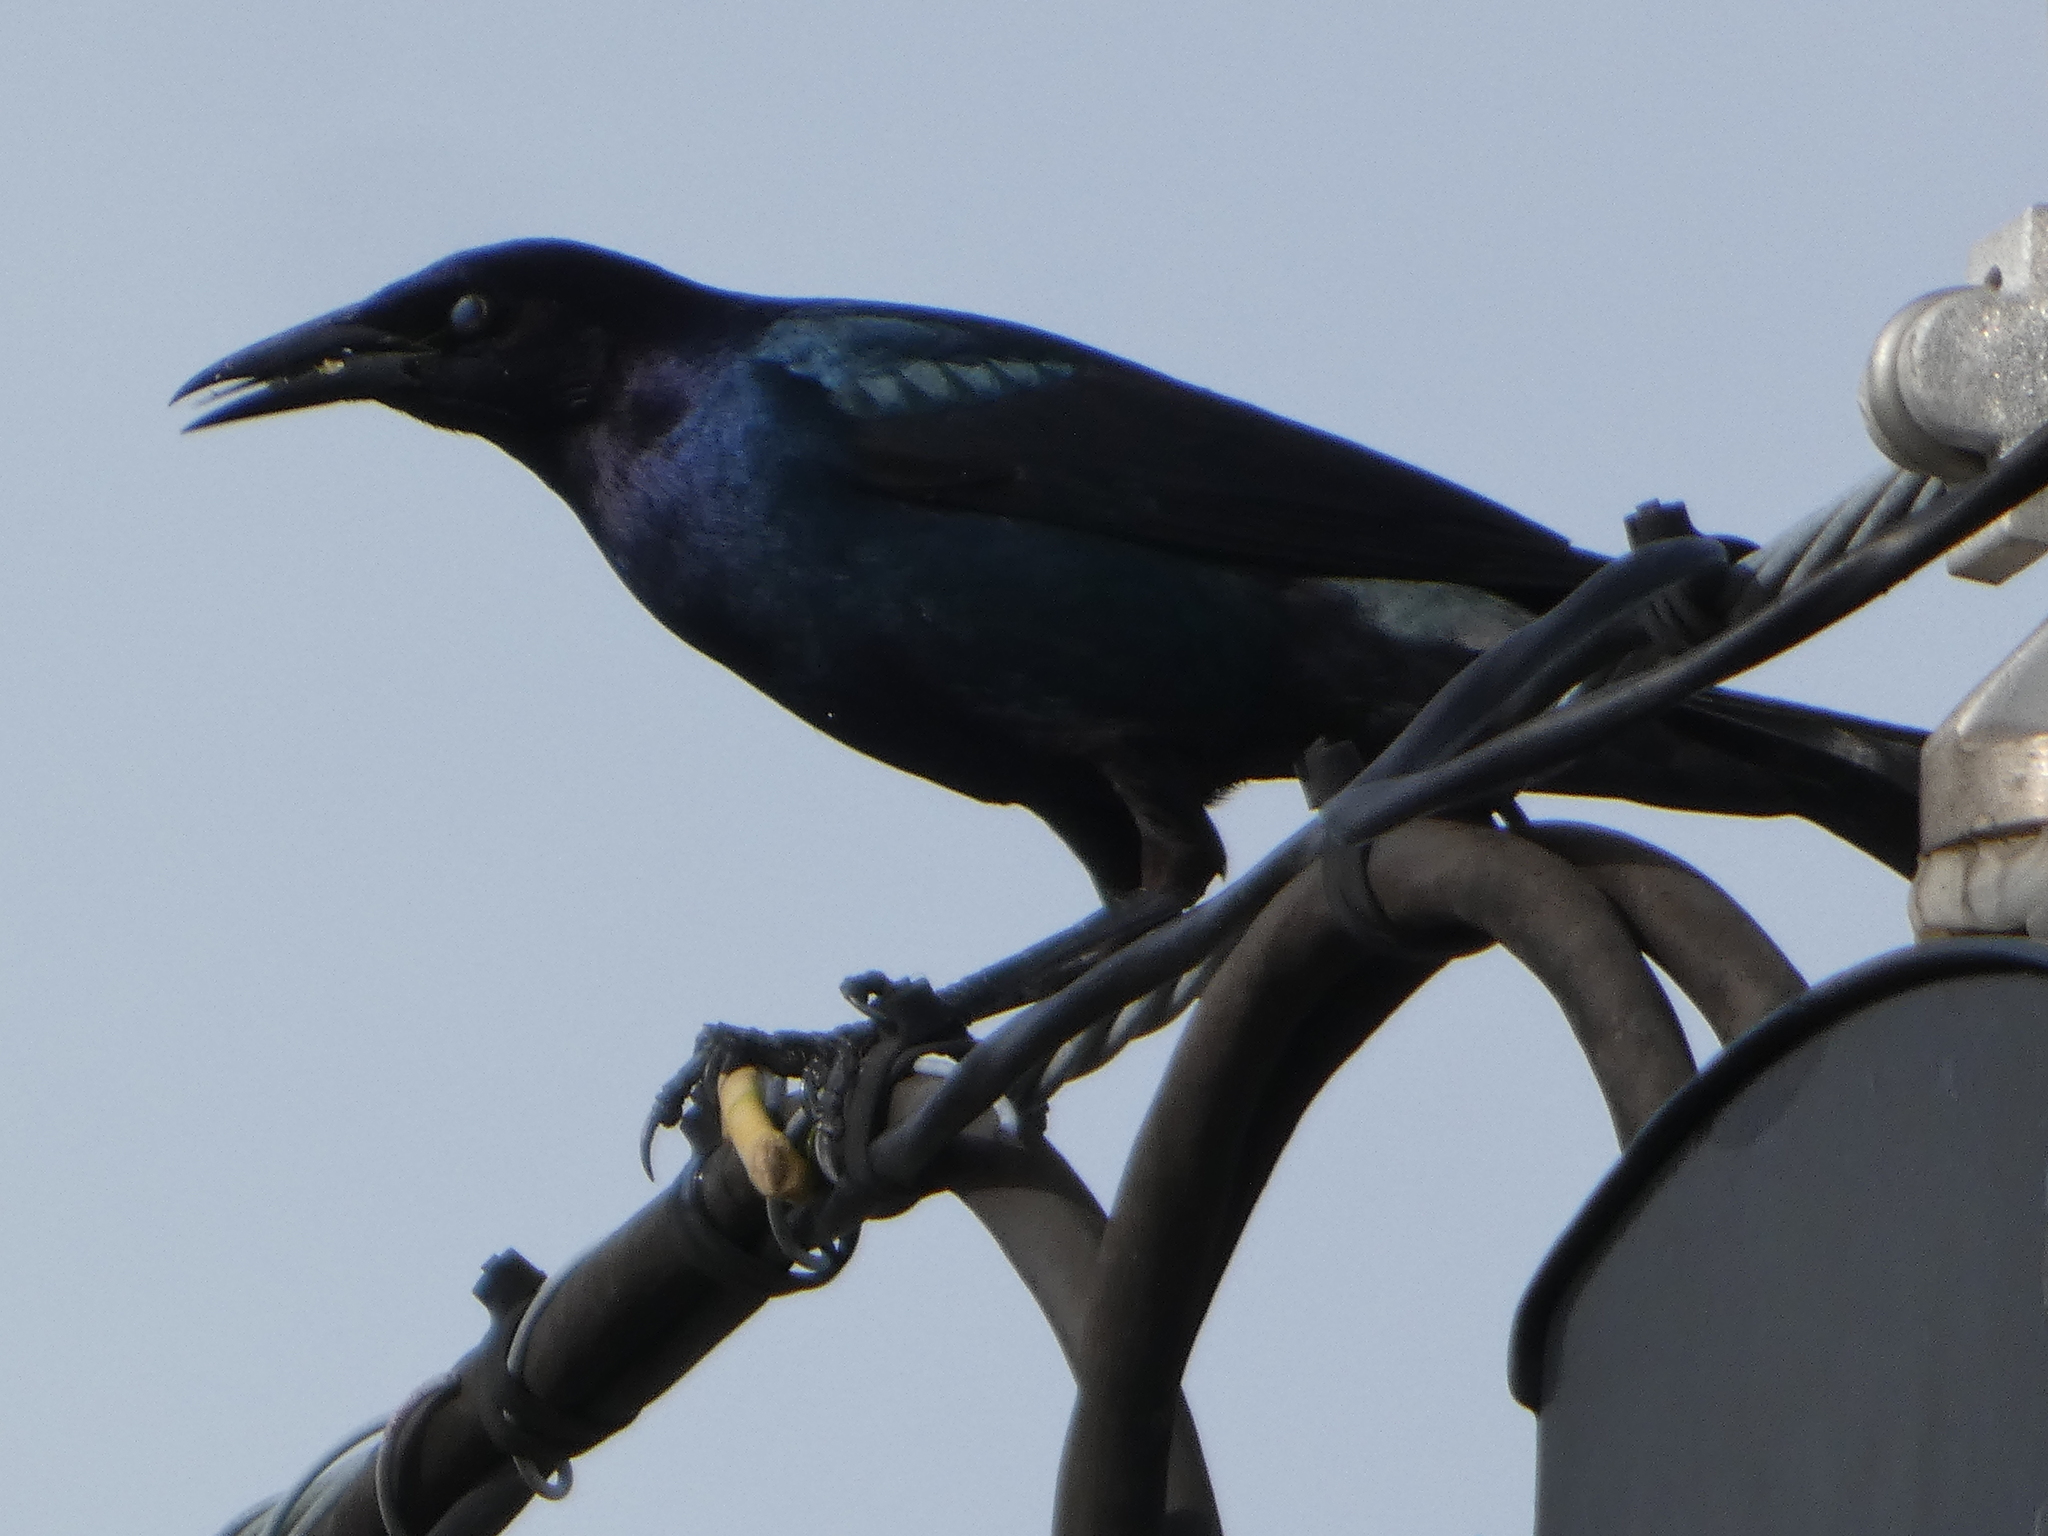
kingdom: Animalia
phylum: Chordata
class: Aves
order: Passeriformes
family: Icteridae
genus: Quiscalus
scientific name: Quiscalus major
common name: Boat-tailed grackle
